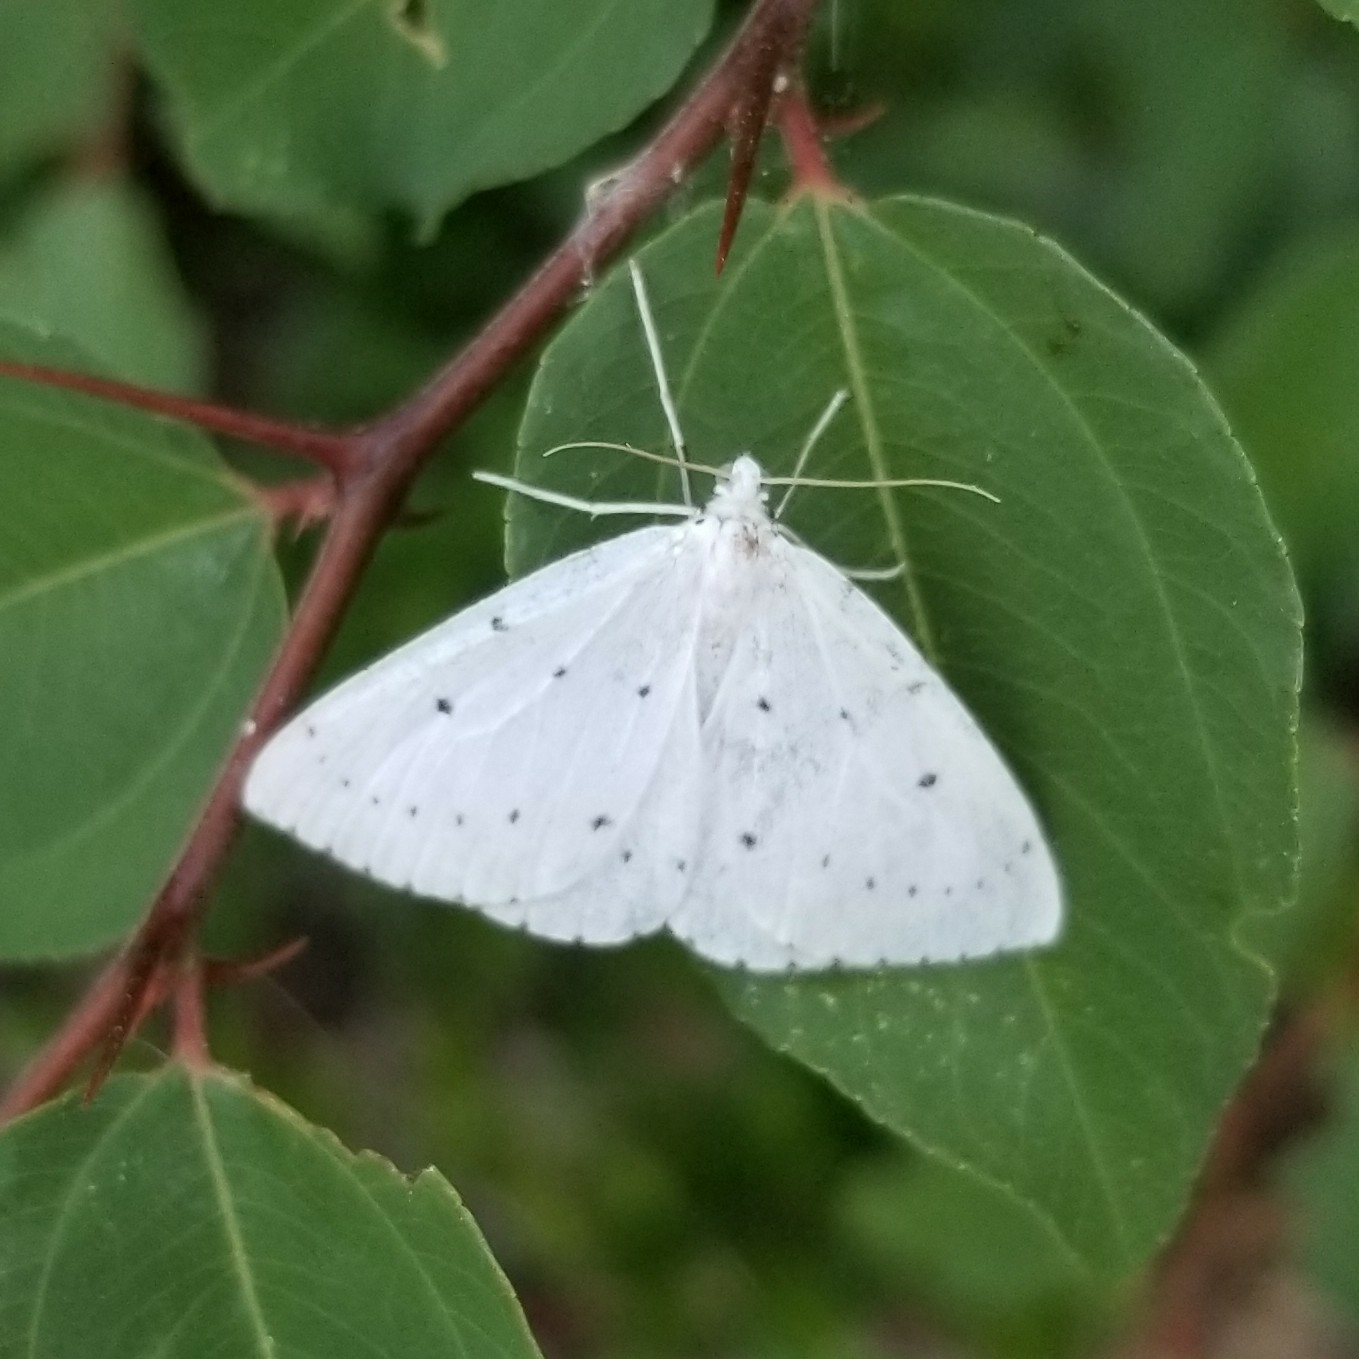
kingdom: Animalia
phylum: Arthropoda
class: Insecta
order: Lepidoptera
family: Geometridae
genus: Orthostixis
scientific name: Orthostixis cribraria
